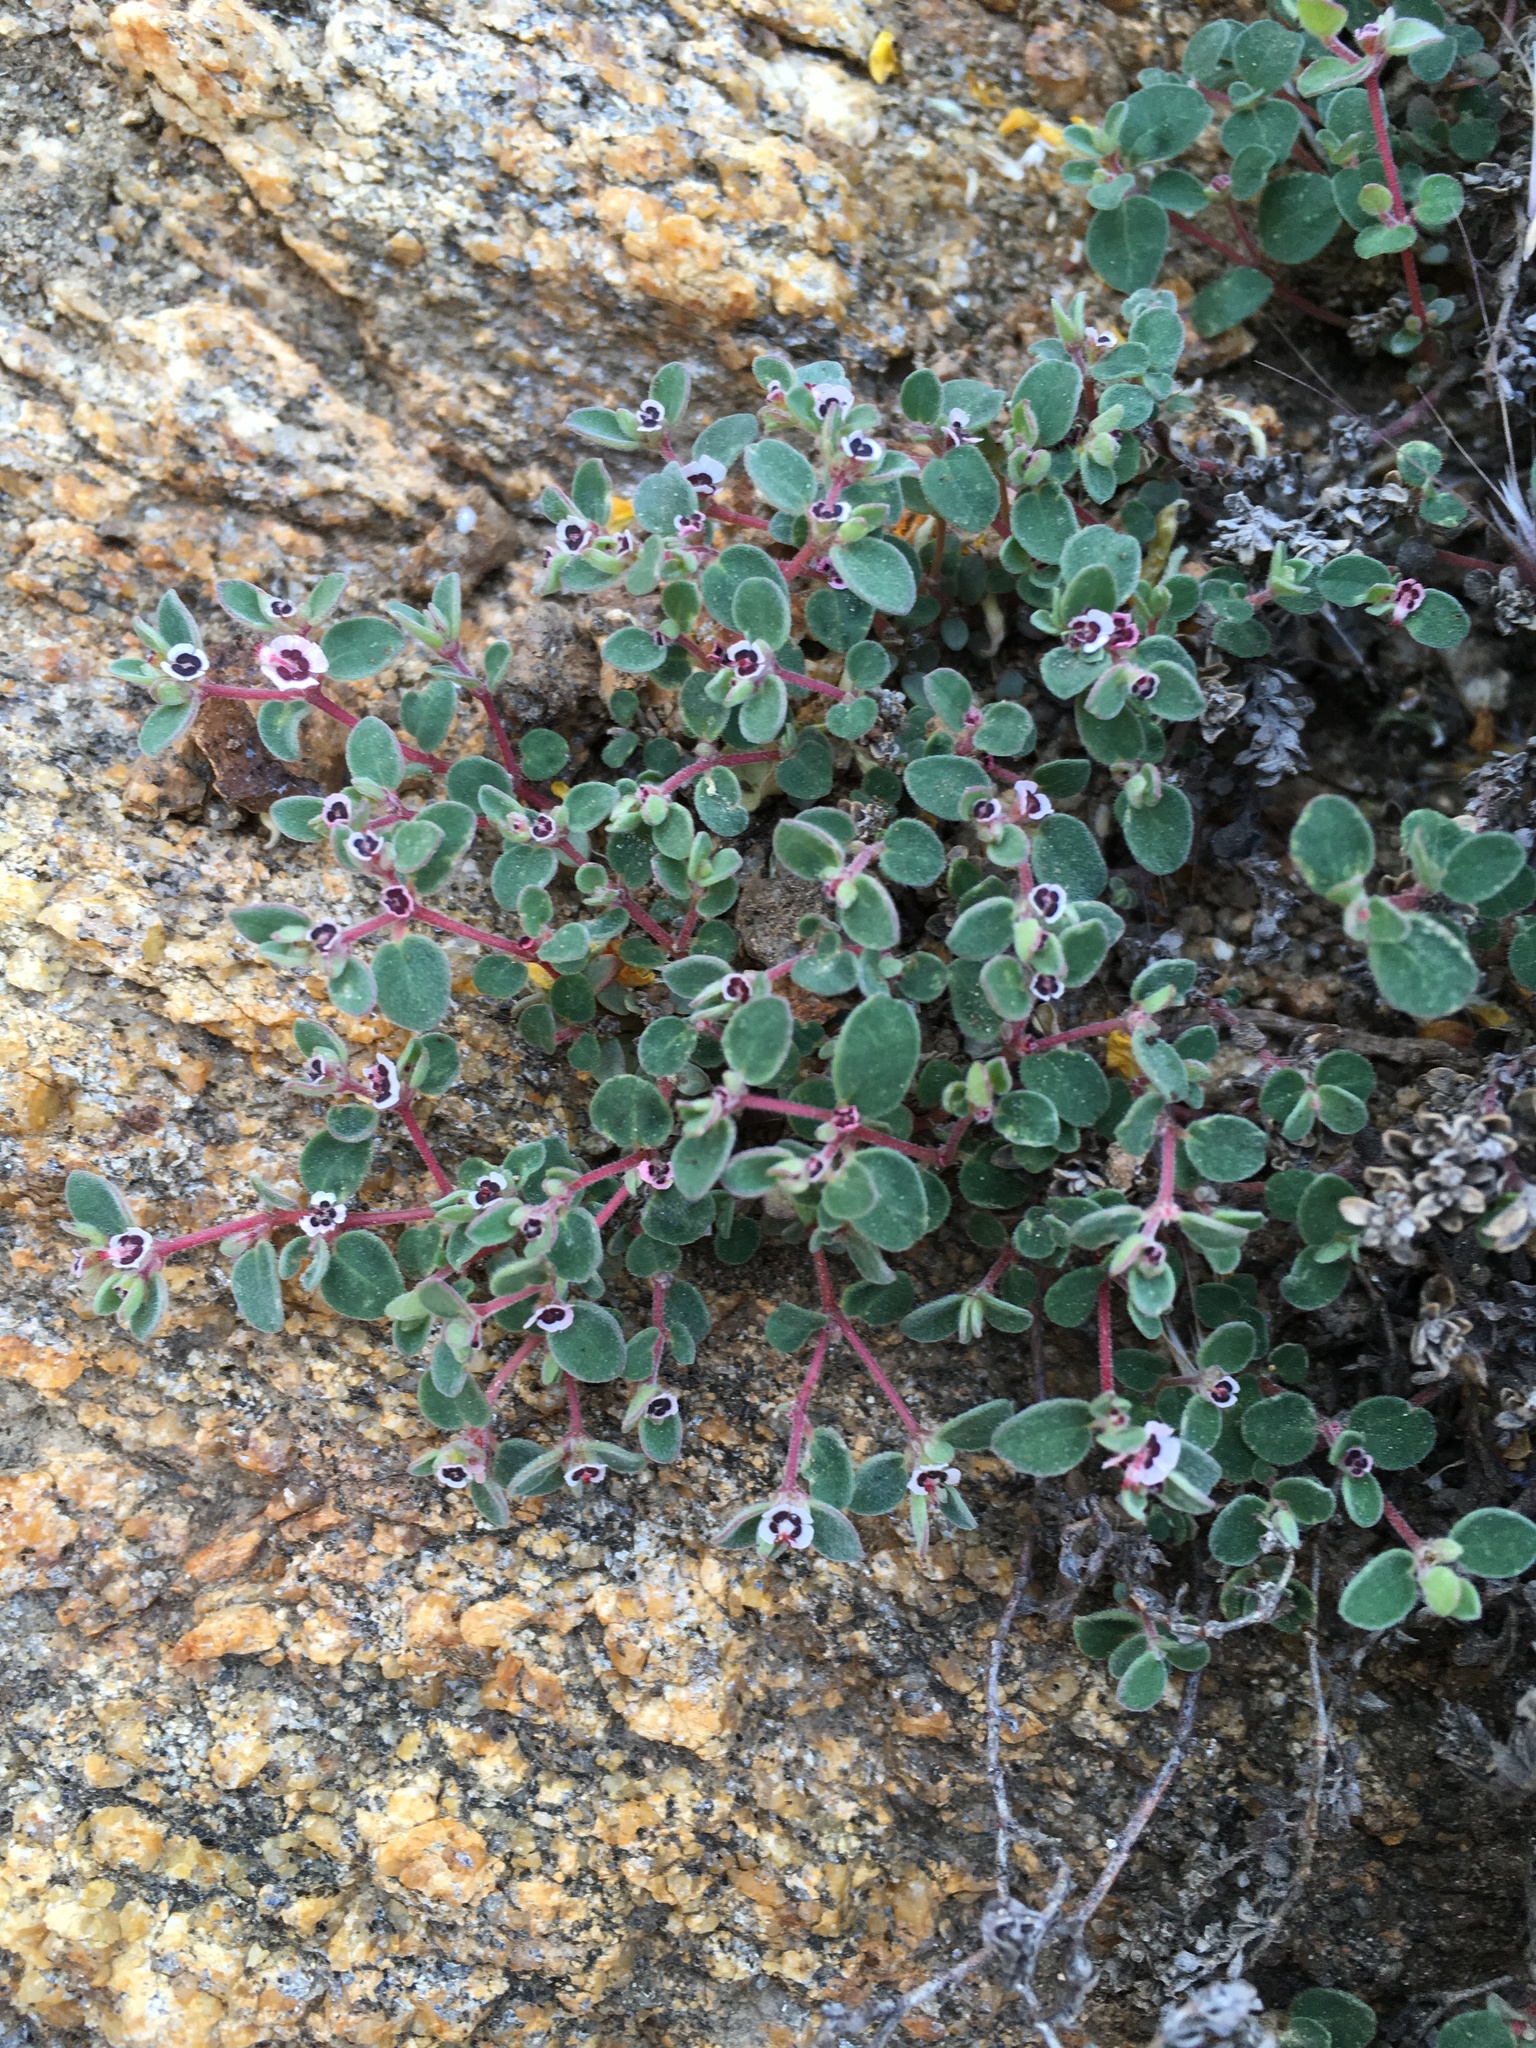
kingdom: Plantae
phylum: Tracheophyta
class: Magnoliopsida
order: Malpighiales
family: Euphorbiaceae
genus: Euphorbia
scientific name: Euphorbia melanadenia
